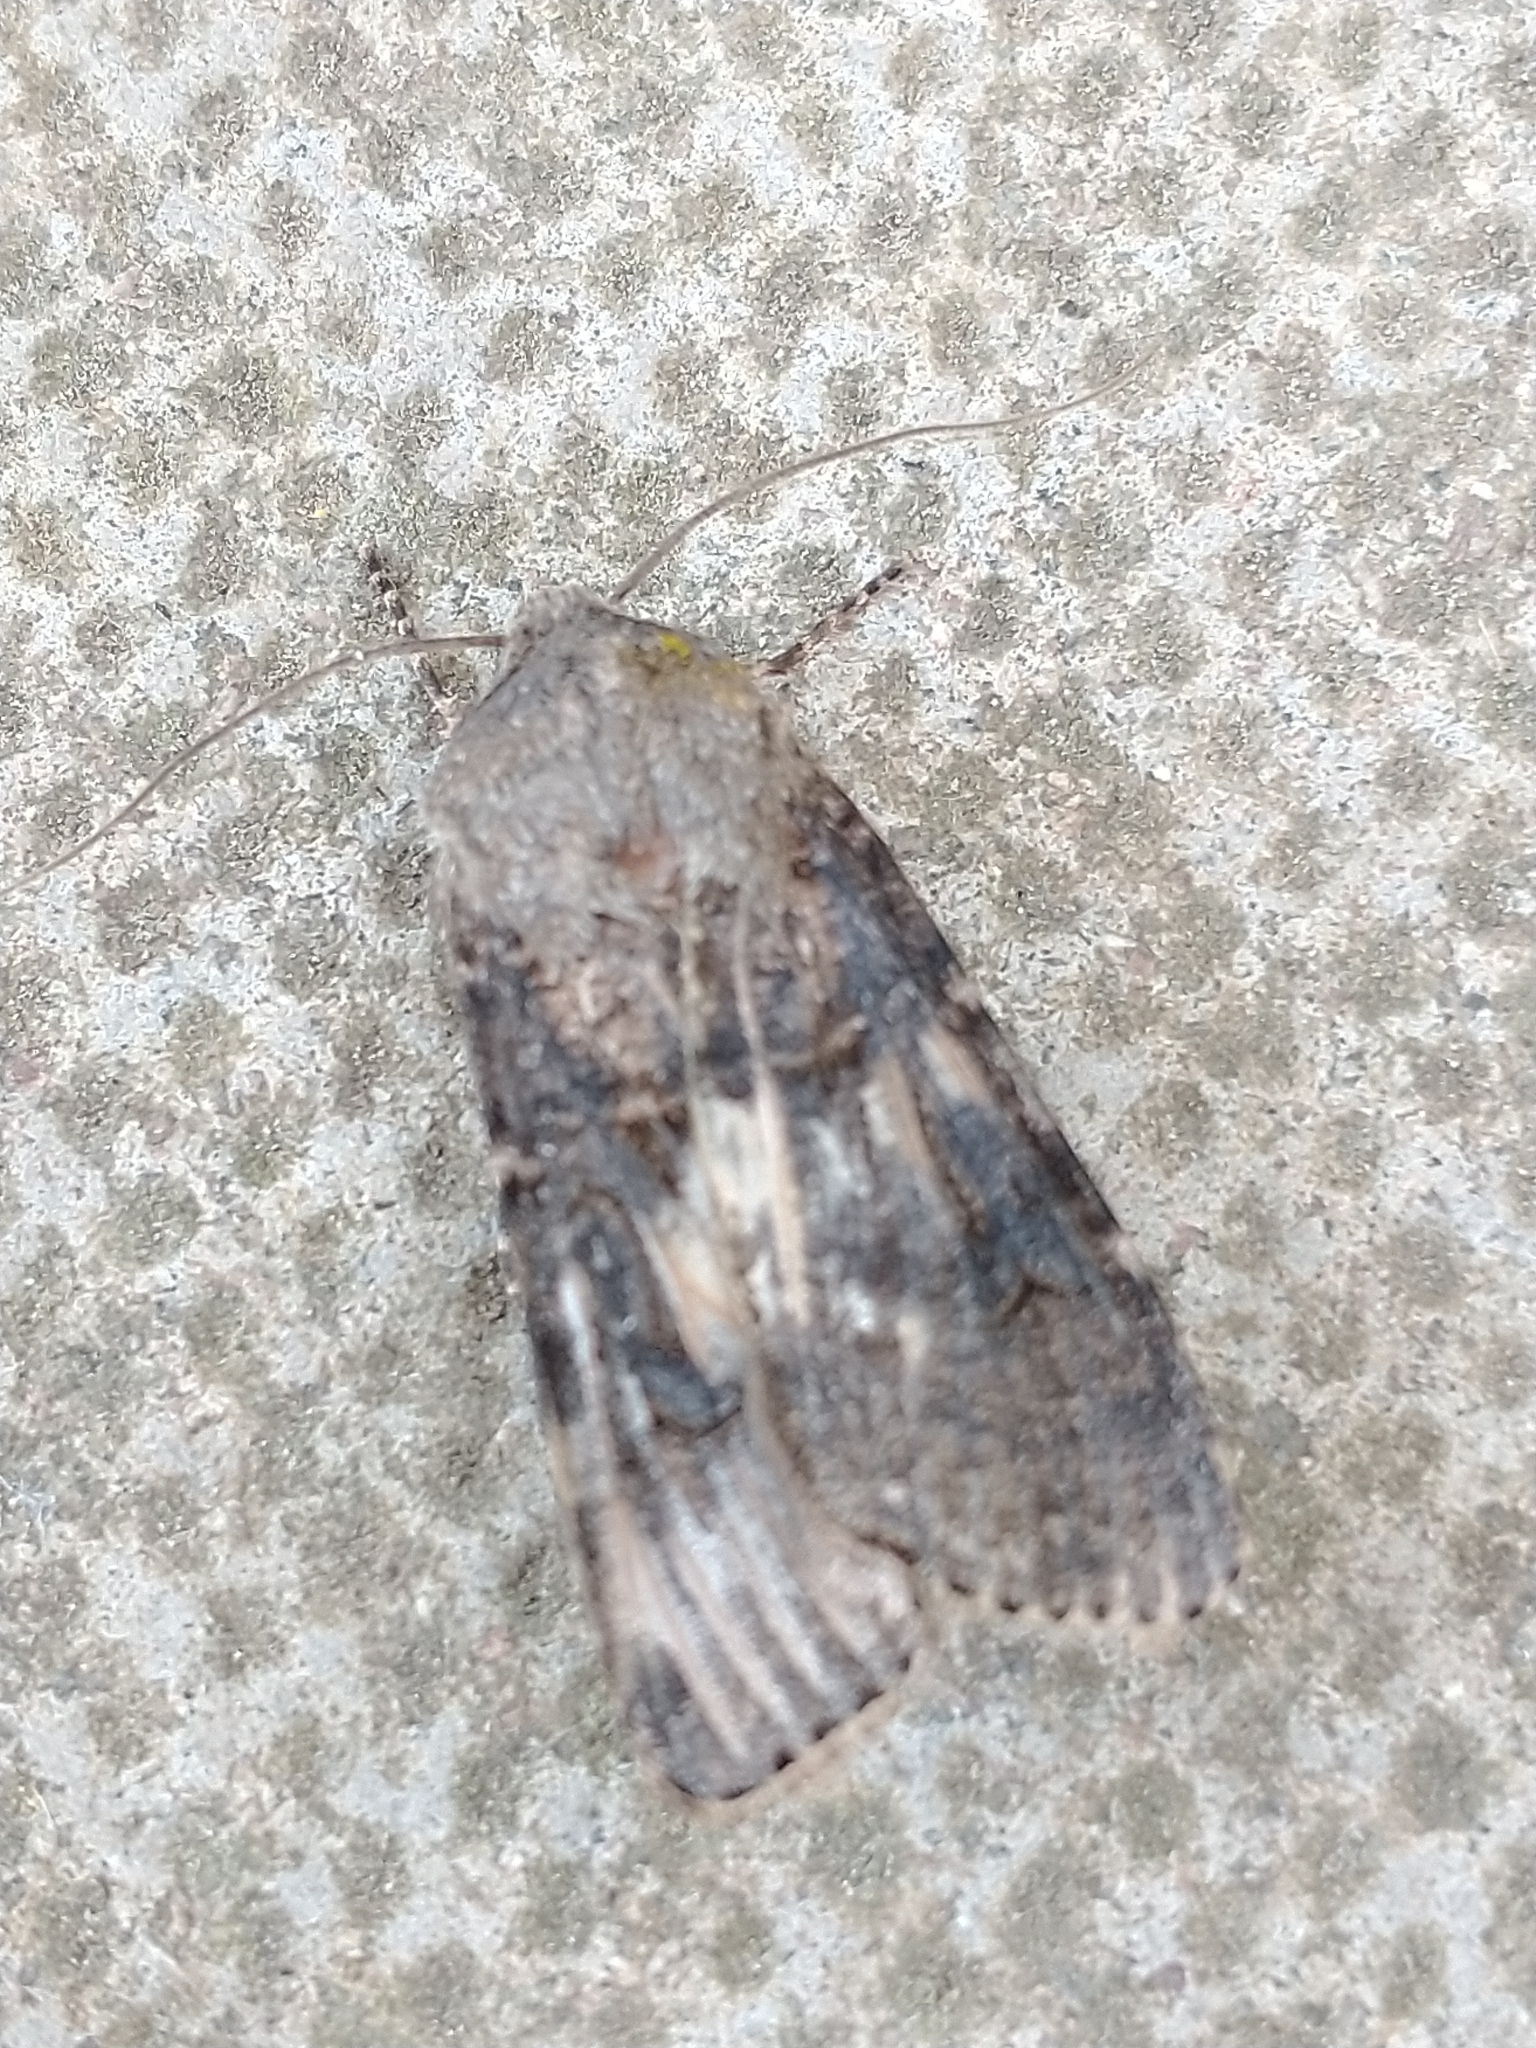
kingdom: Animalia
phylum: Arthropoda
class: Insecta
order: Lepidoptera
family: Noctuidae
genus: Agrotis
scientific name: Agrotis puta
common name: Shuttle-shaped dart
